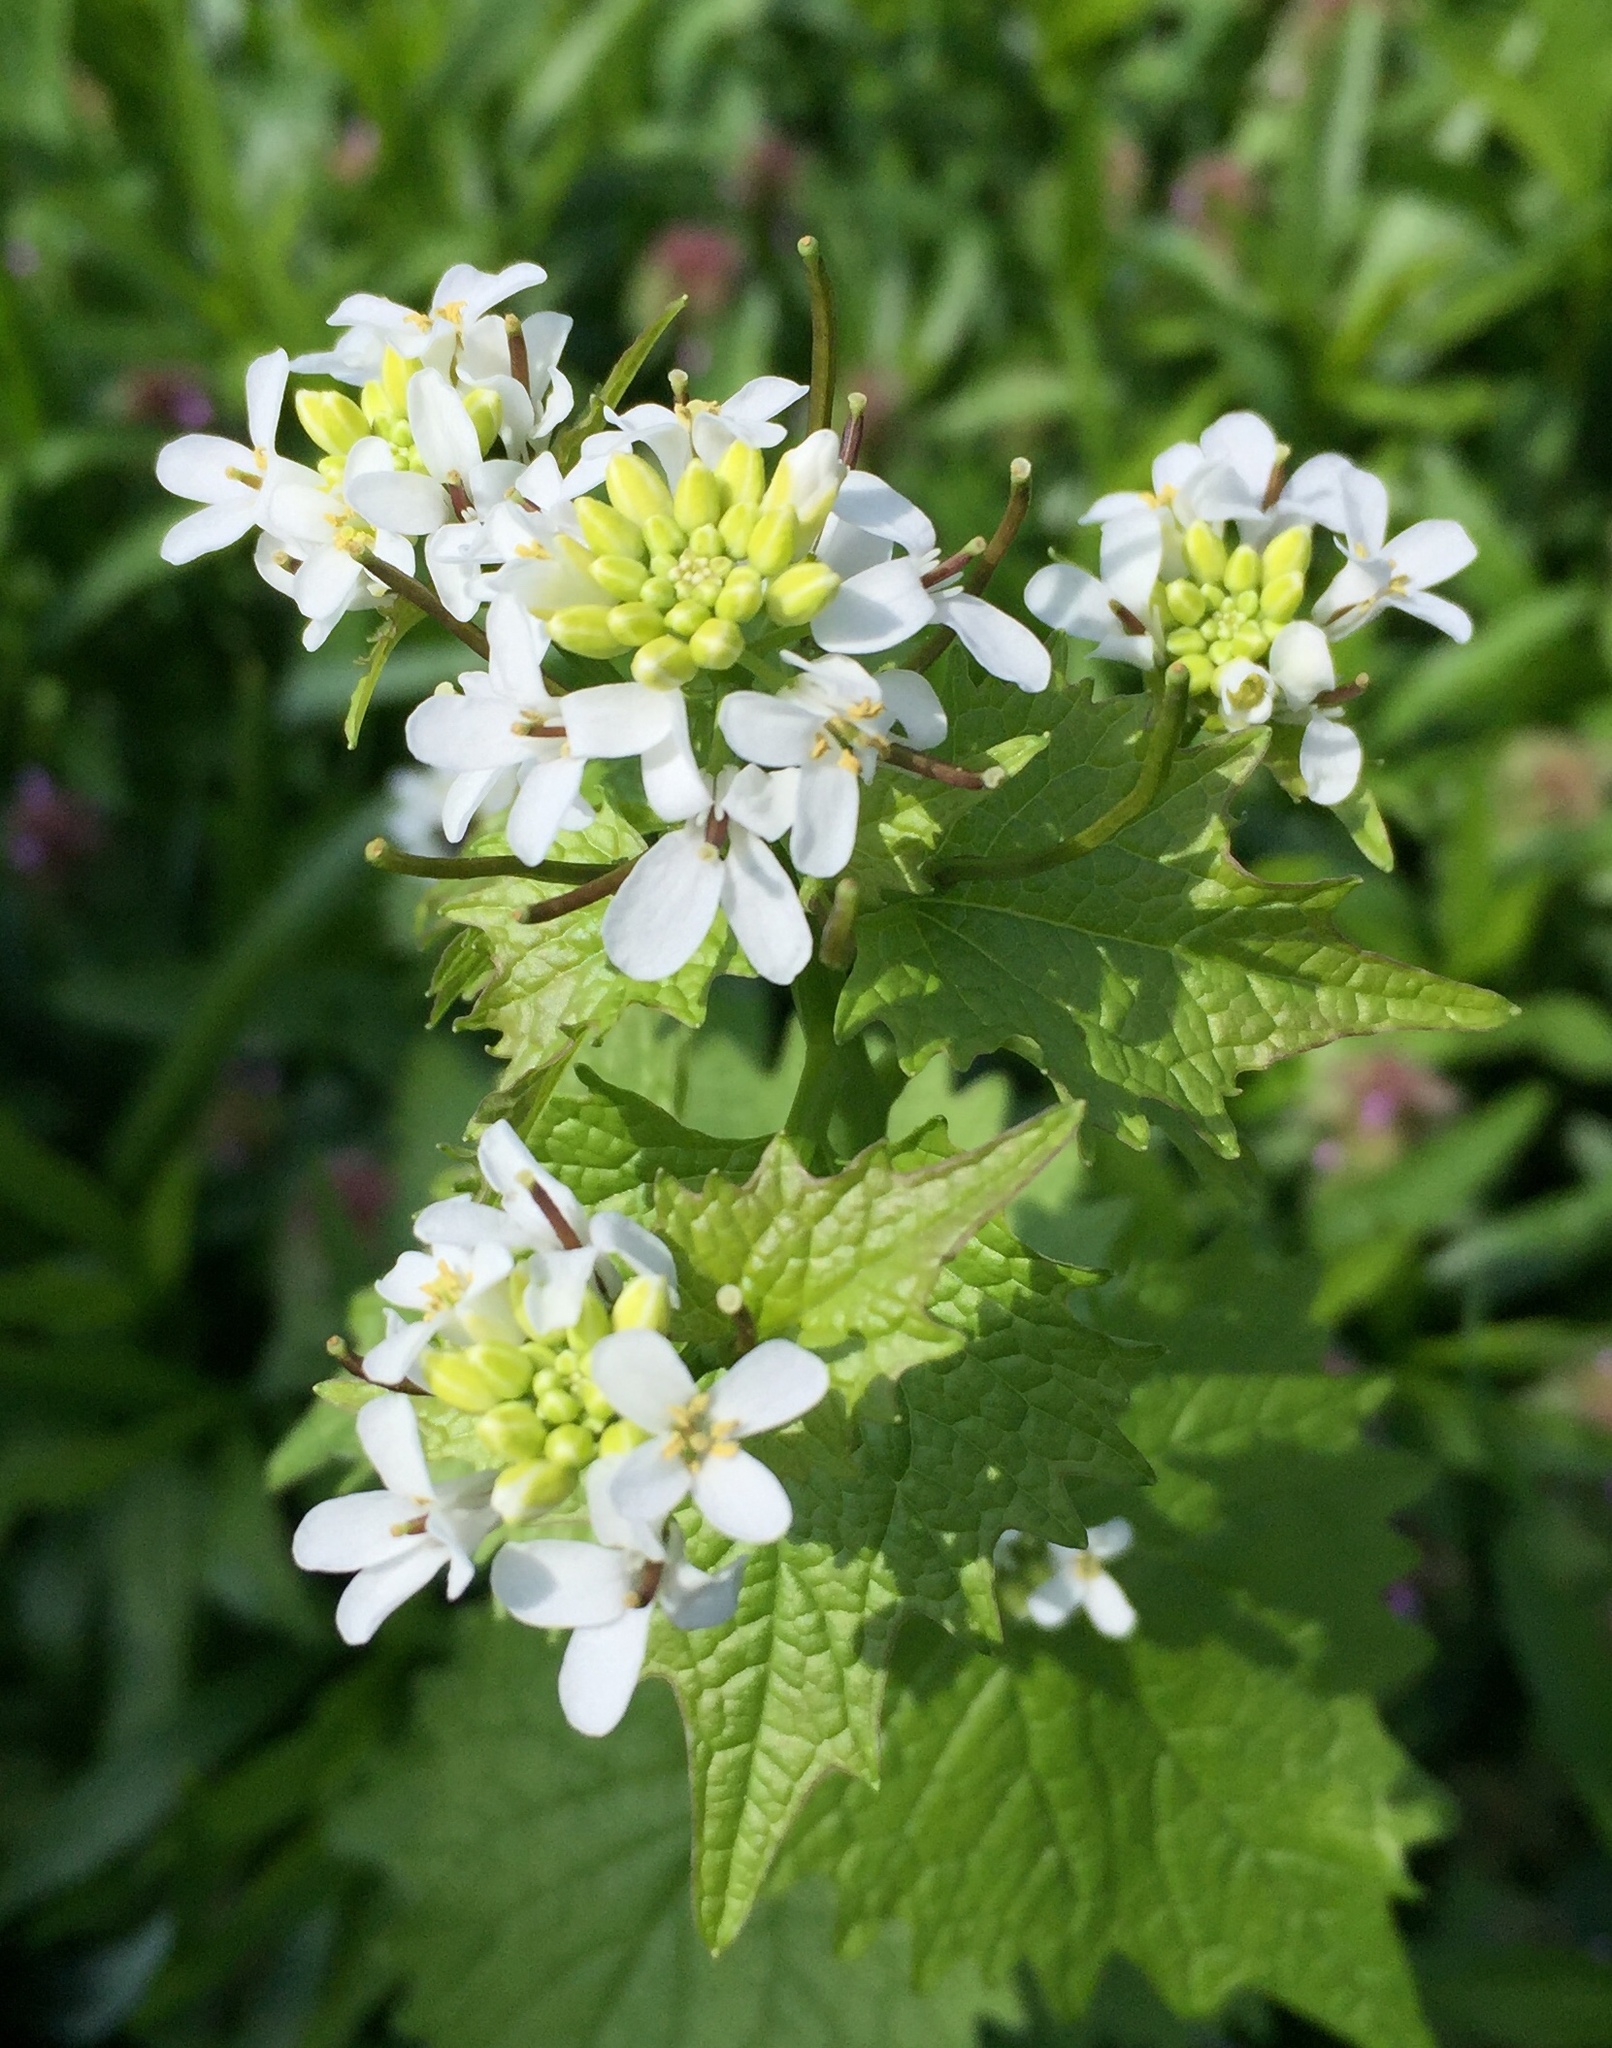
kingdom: Plantae
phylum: Tracheophyta
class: Magnoliopsida
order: Brassicales
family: Brassicaceae
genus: Alliaria
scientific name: Alliaria petiolata
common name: Garlic mustard
